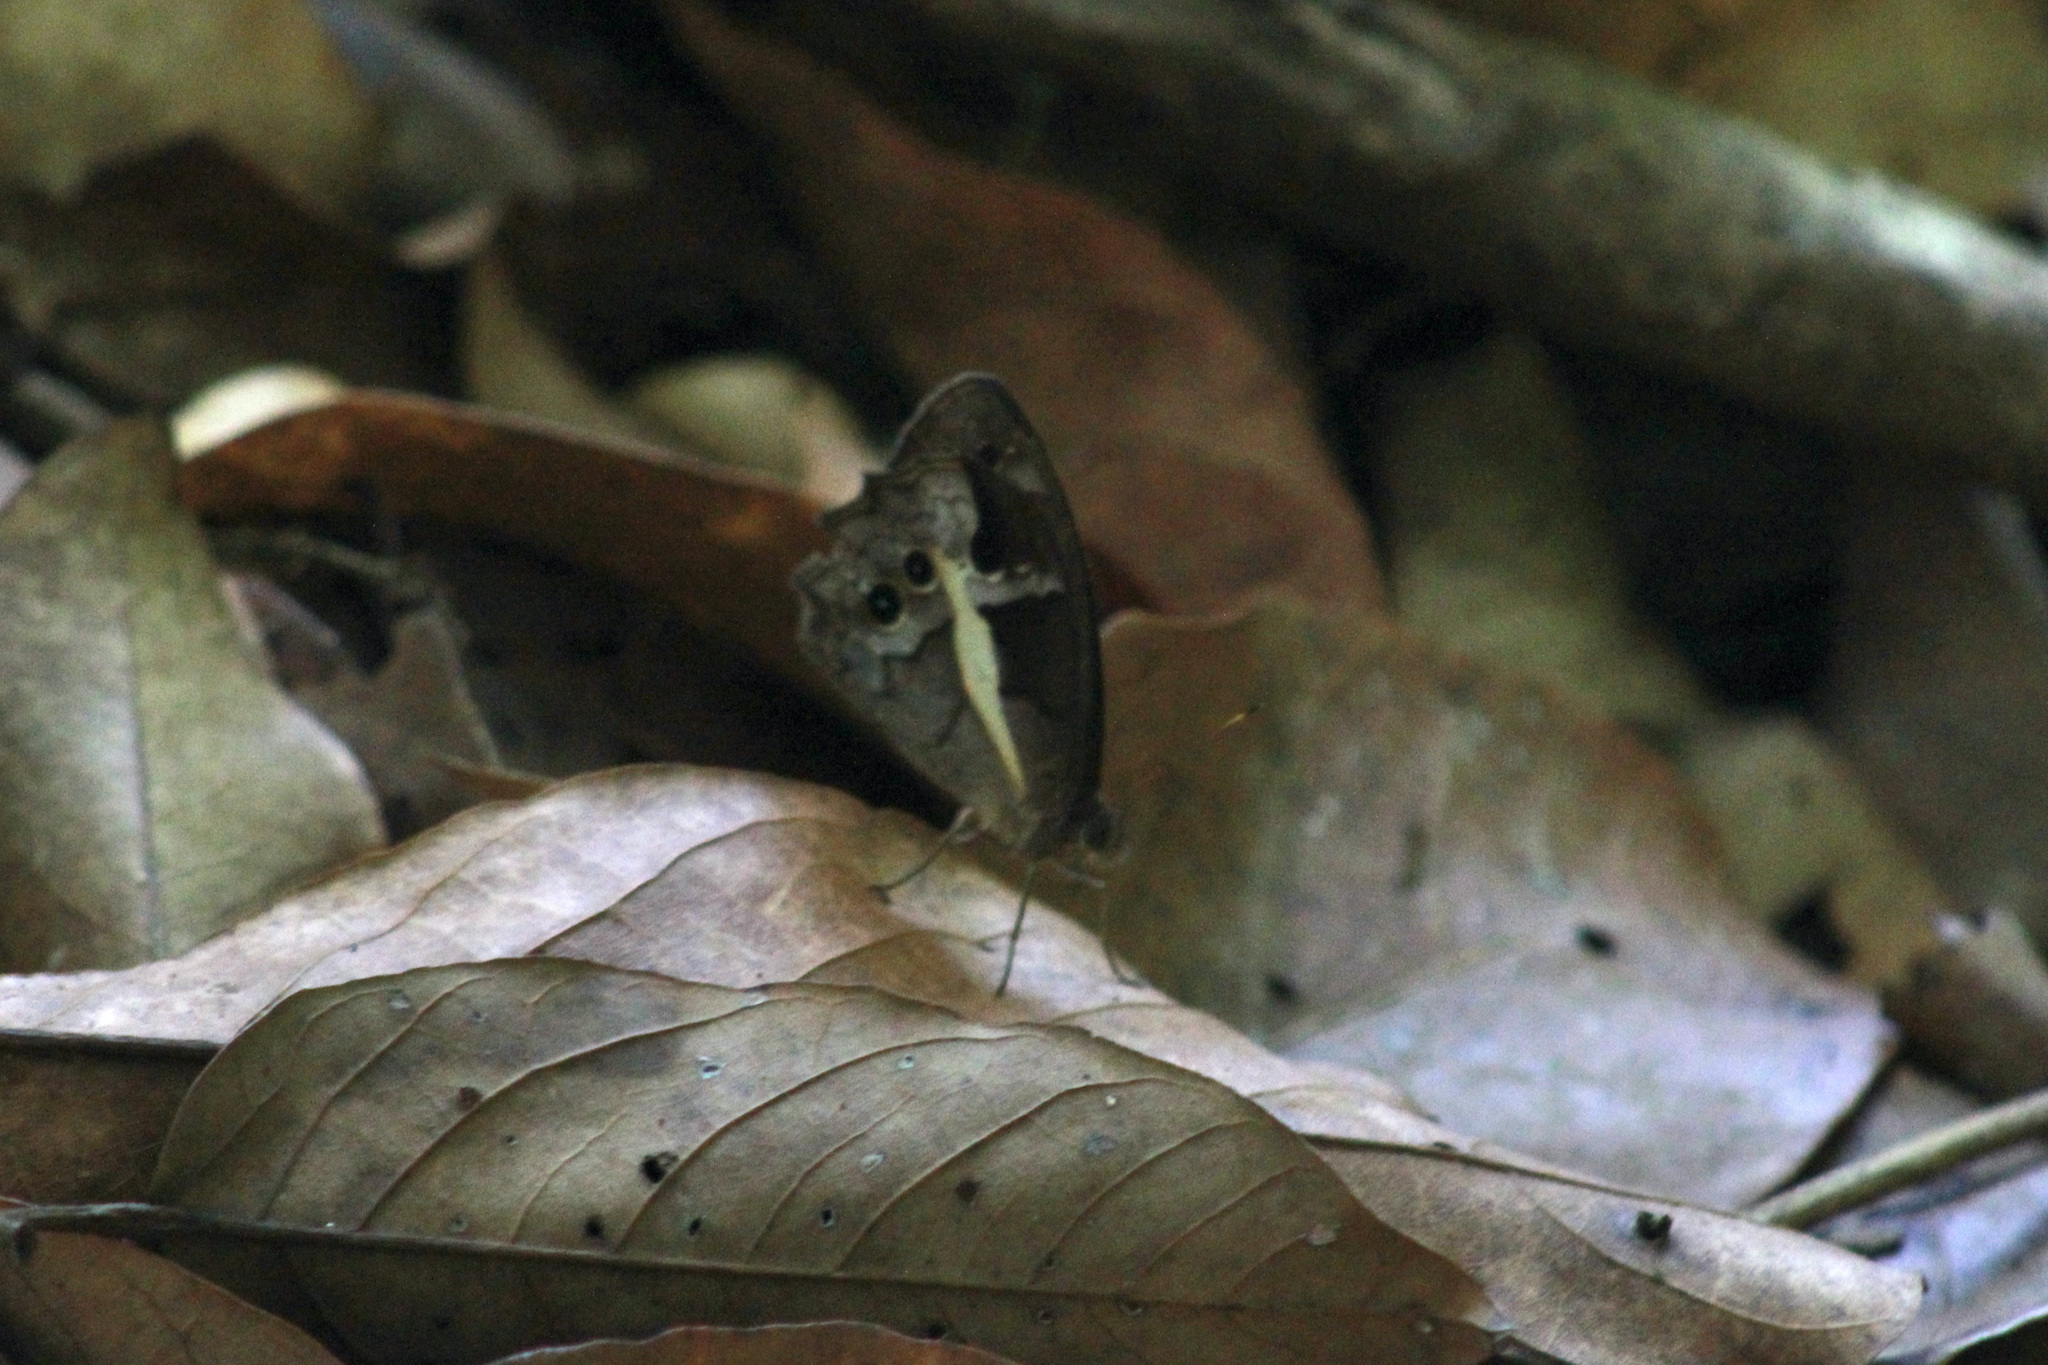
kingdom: Animalia
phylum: Arthropoda
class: Insecta
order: Lepidoptera
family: Nymphalidae
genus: Posttaygetis
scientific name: Posttaygetis penelea
